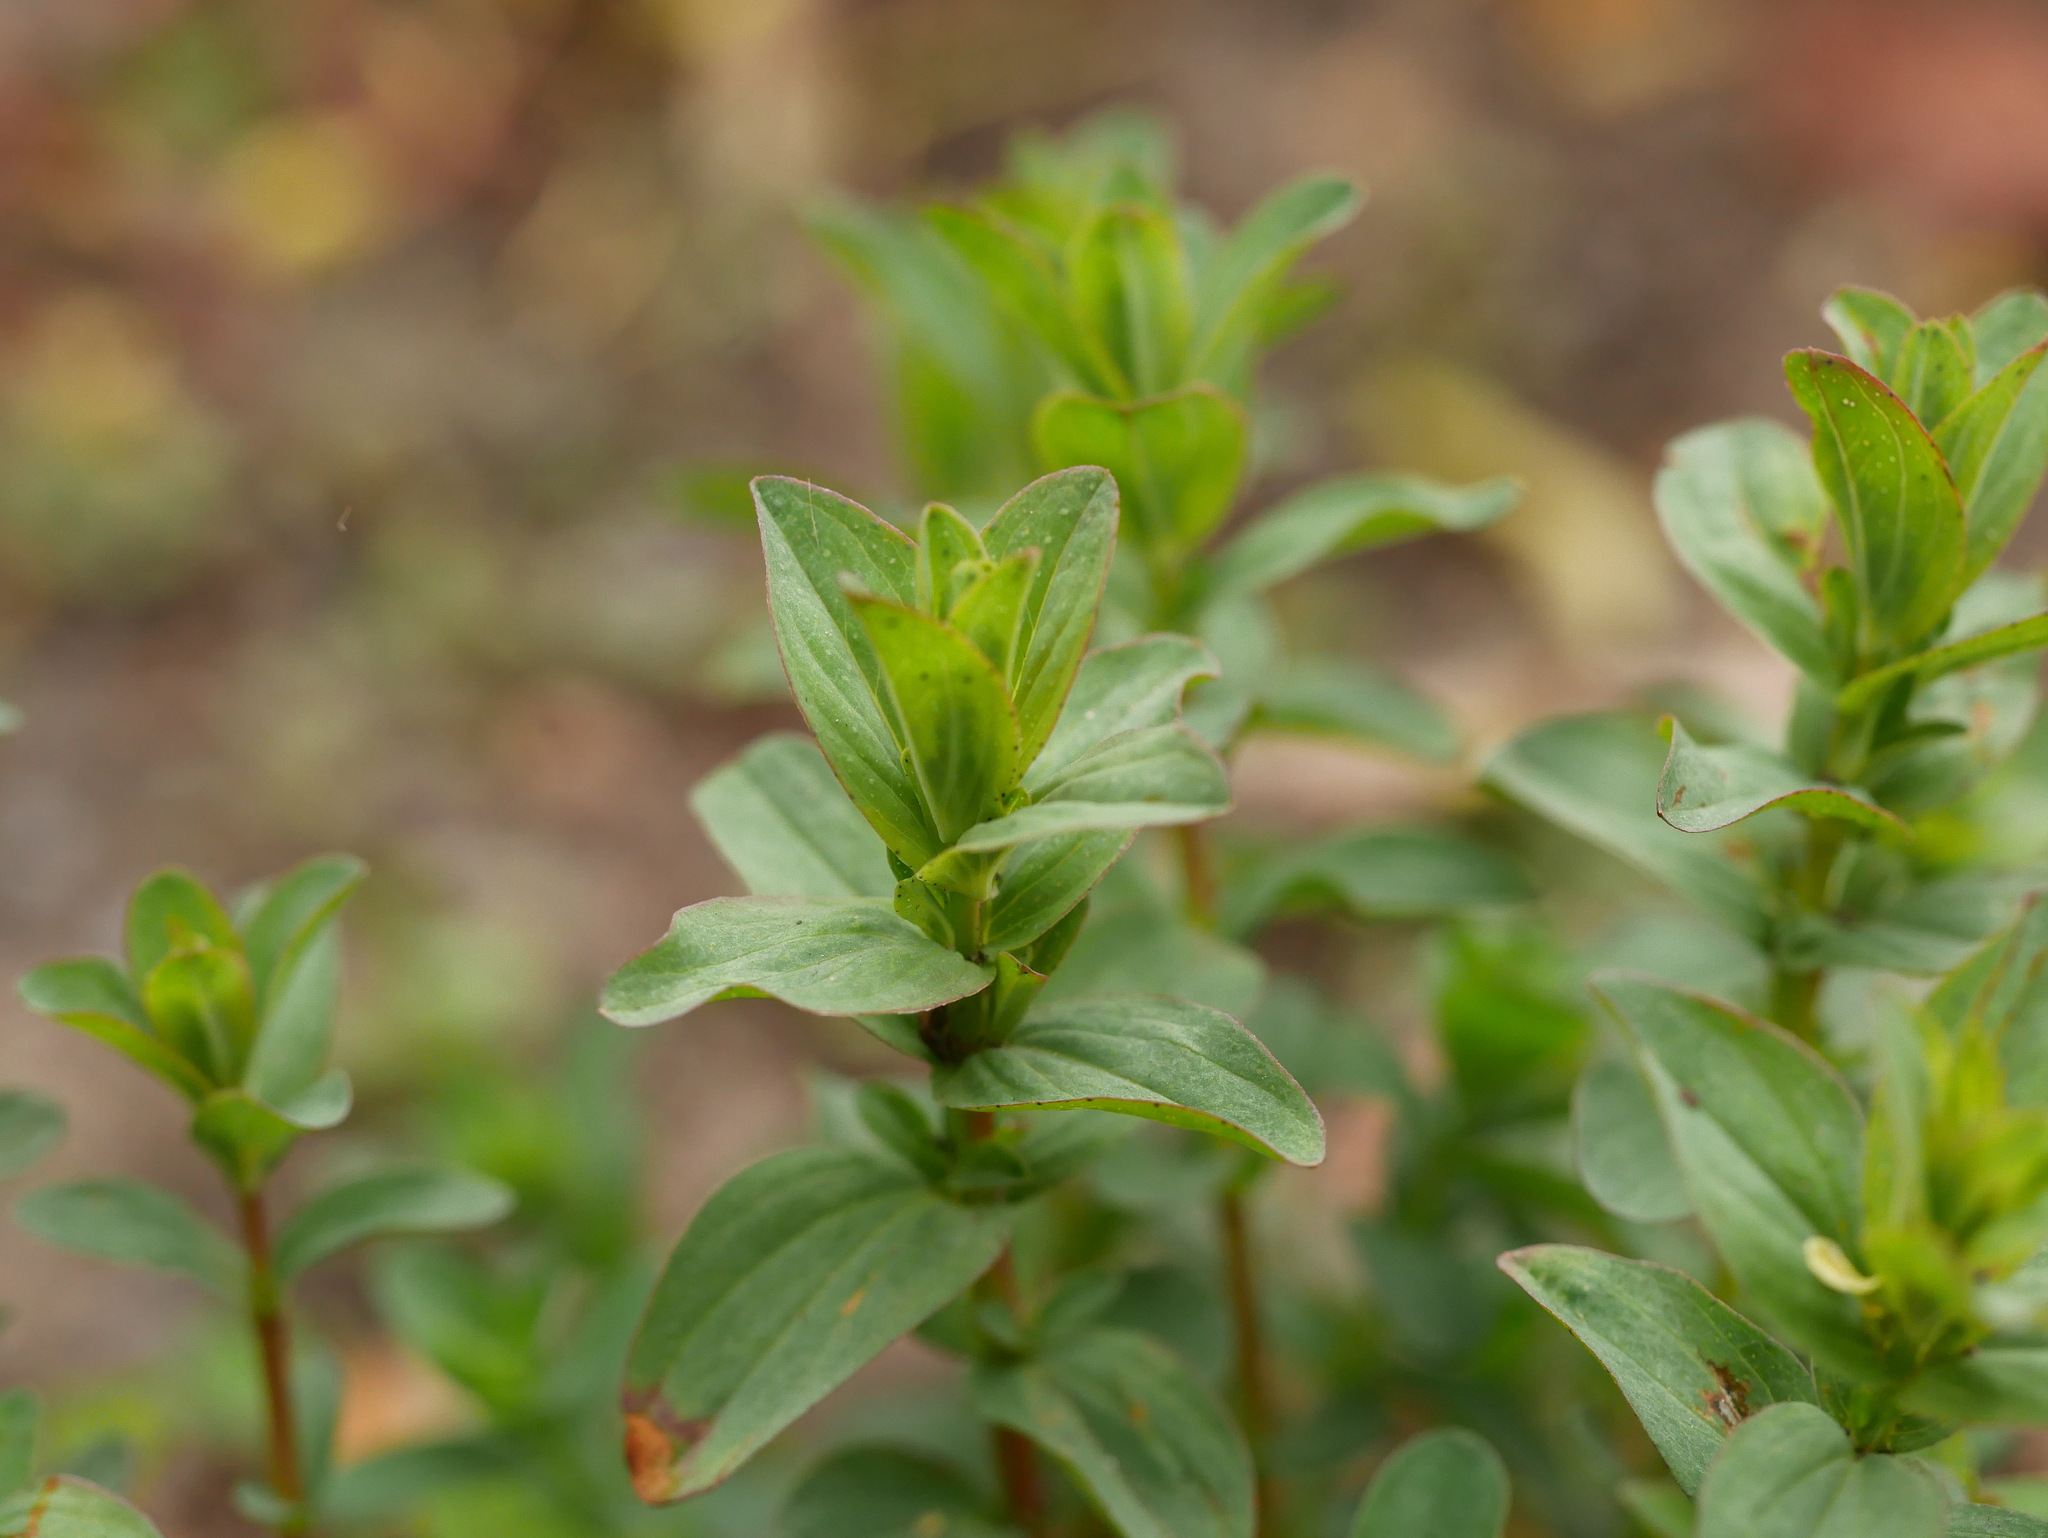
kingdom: Plantae
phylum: Tracheophyta
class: Magnoliopsida
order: Malpighiales
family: Hypericaceae
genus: Hypericum
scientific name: Hypericum perforatum
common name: Common st. johnswort
